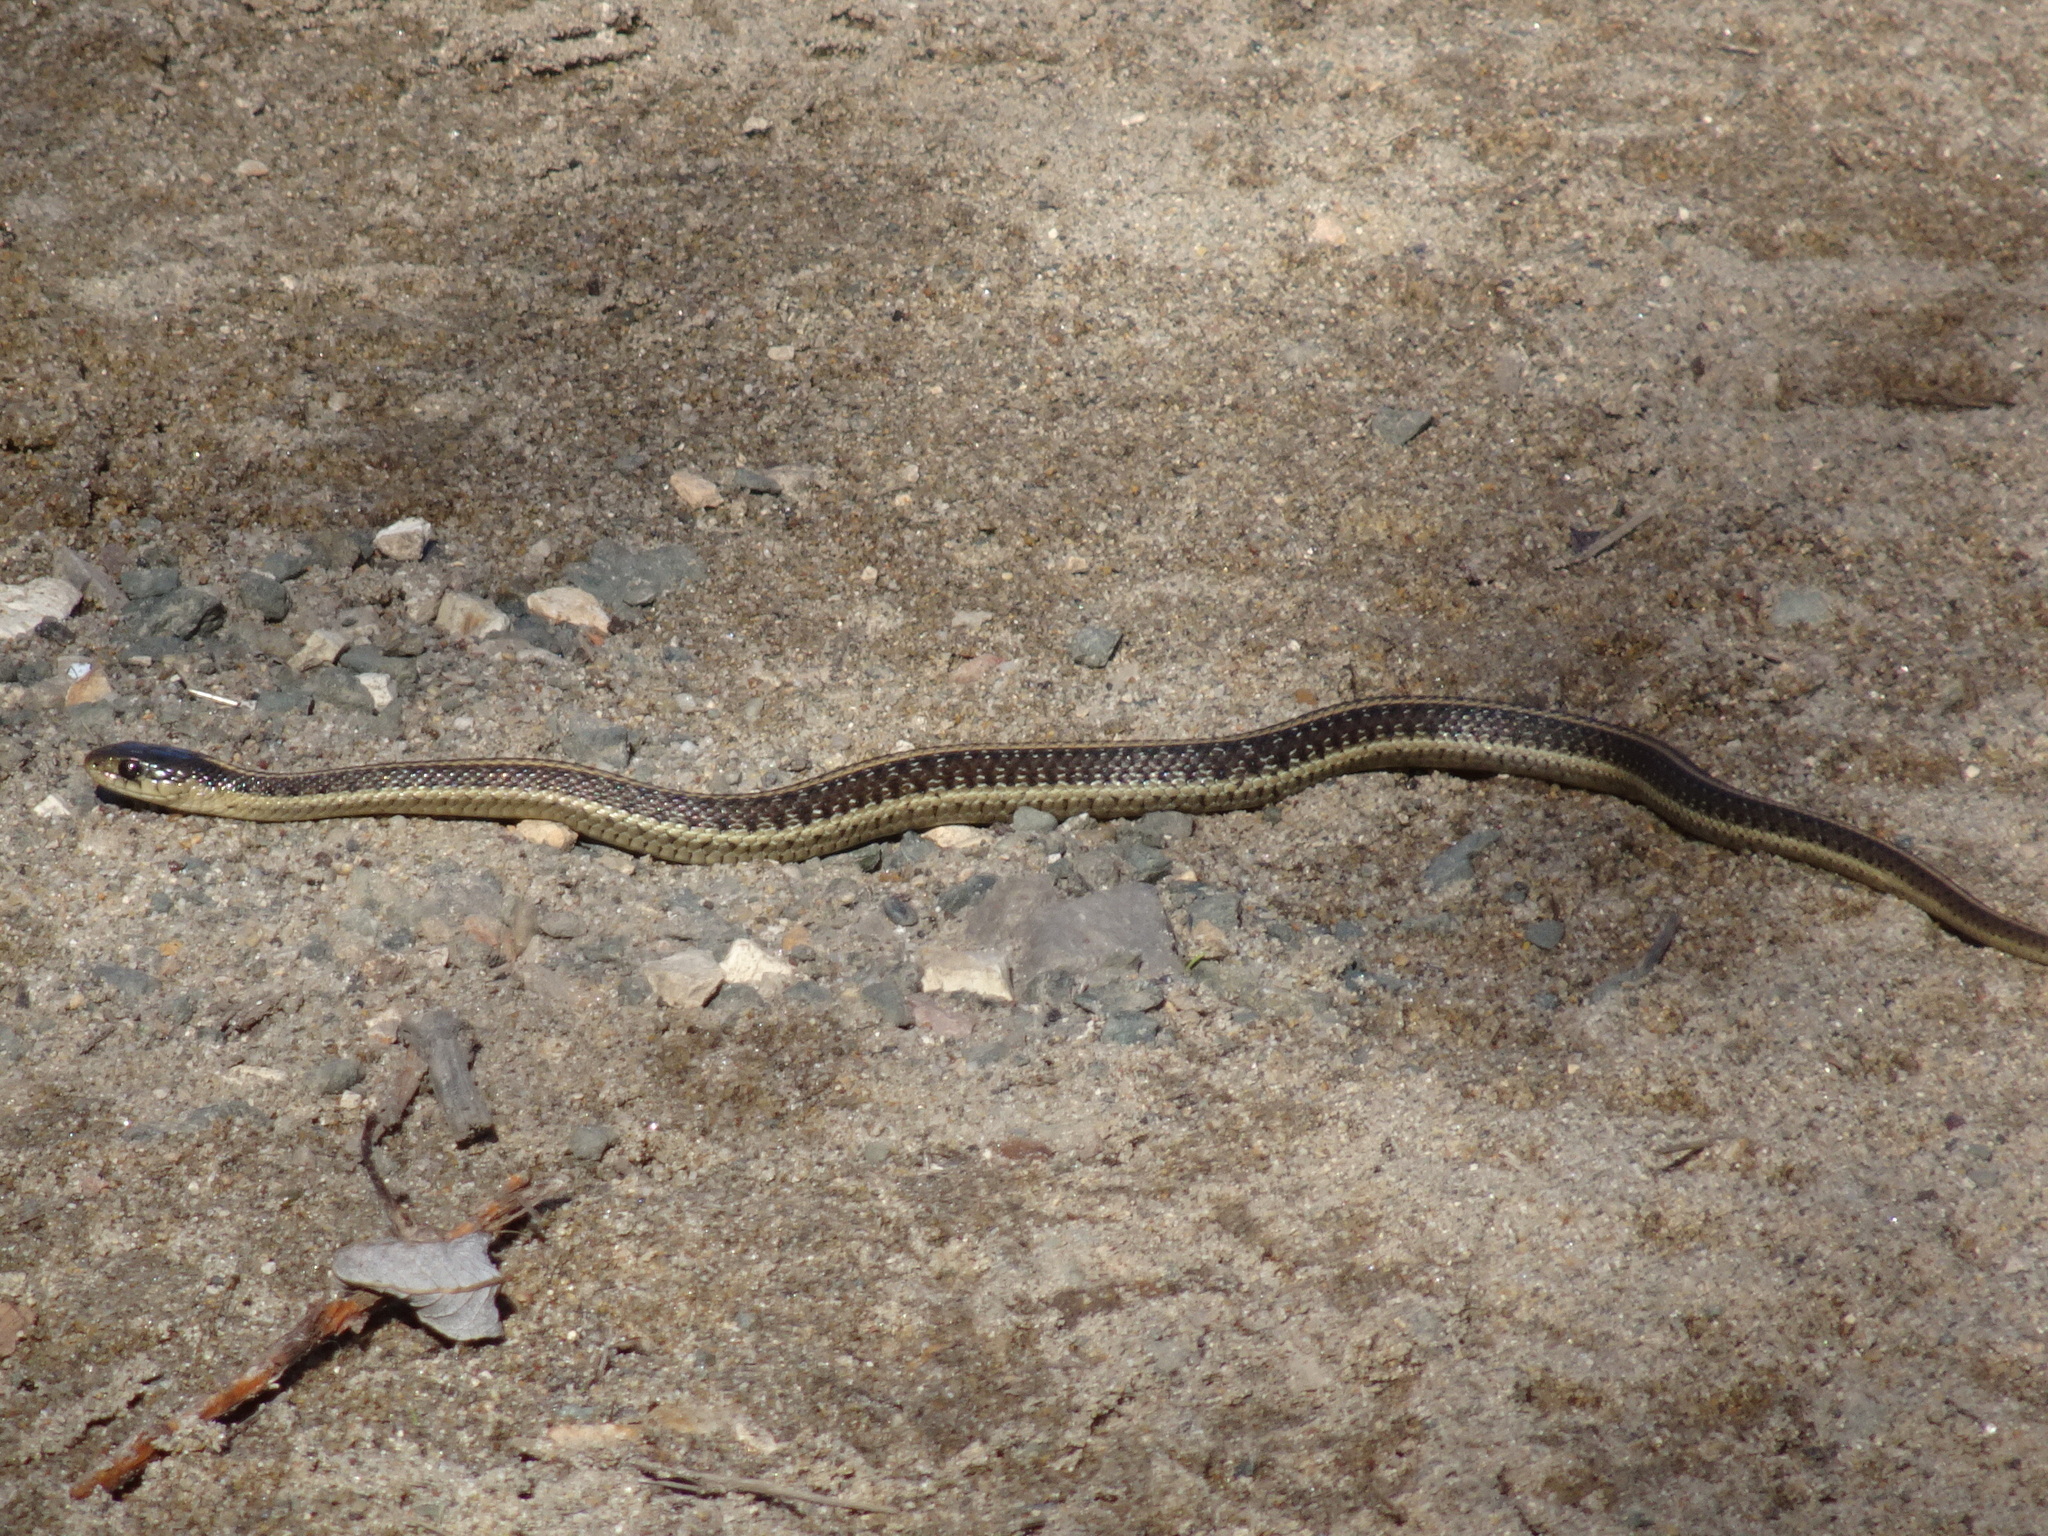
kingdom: Animalia
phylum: Chordata
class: Squamata
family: Colubridae
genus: Thamnophis
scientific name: Thamnophis elegans
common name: Western terrestrial garter snake
